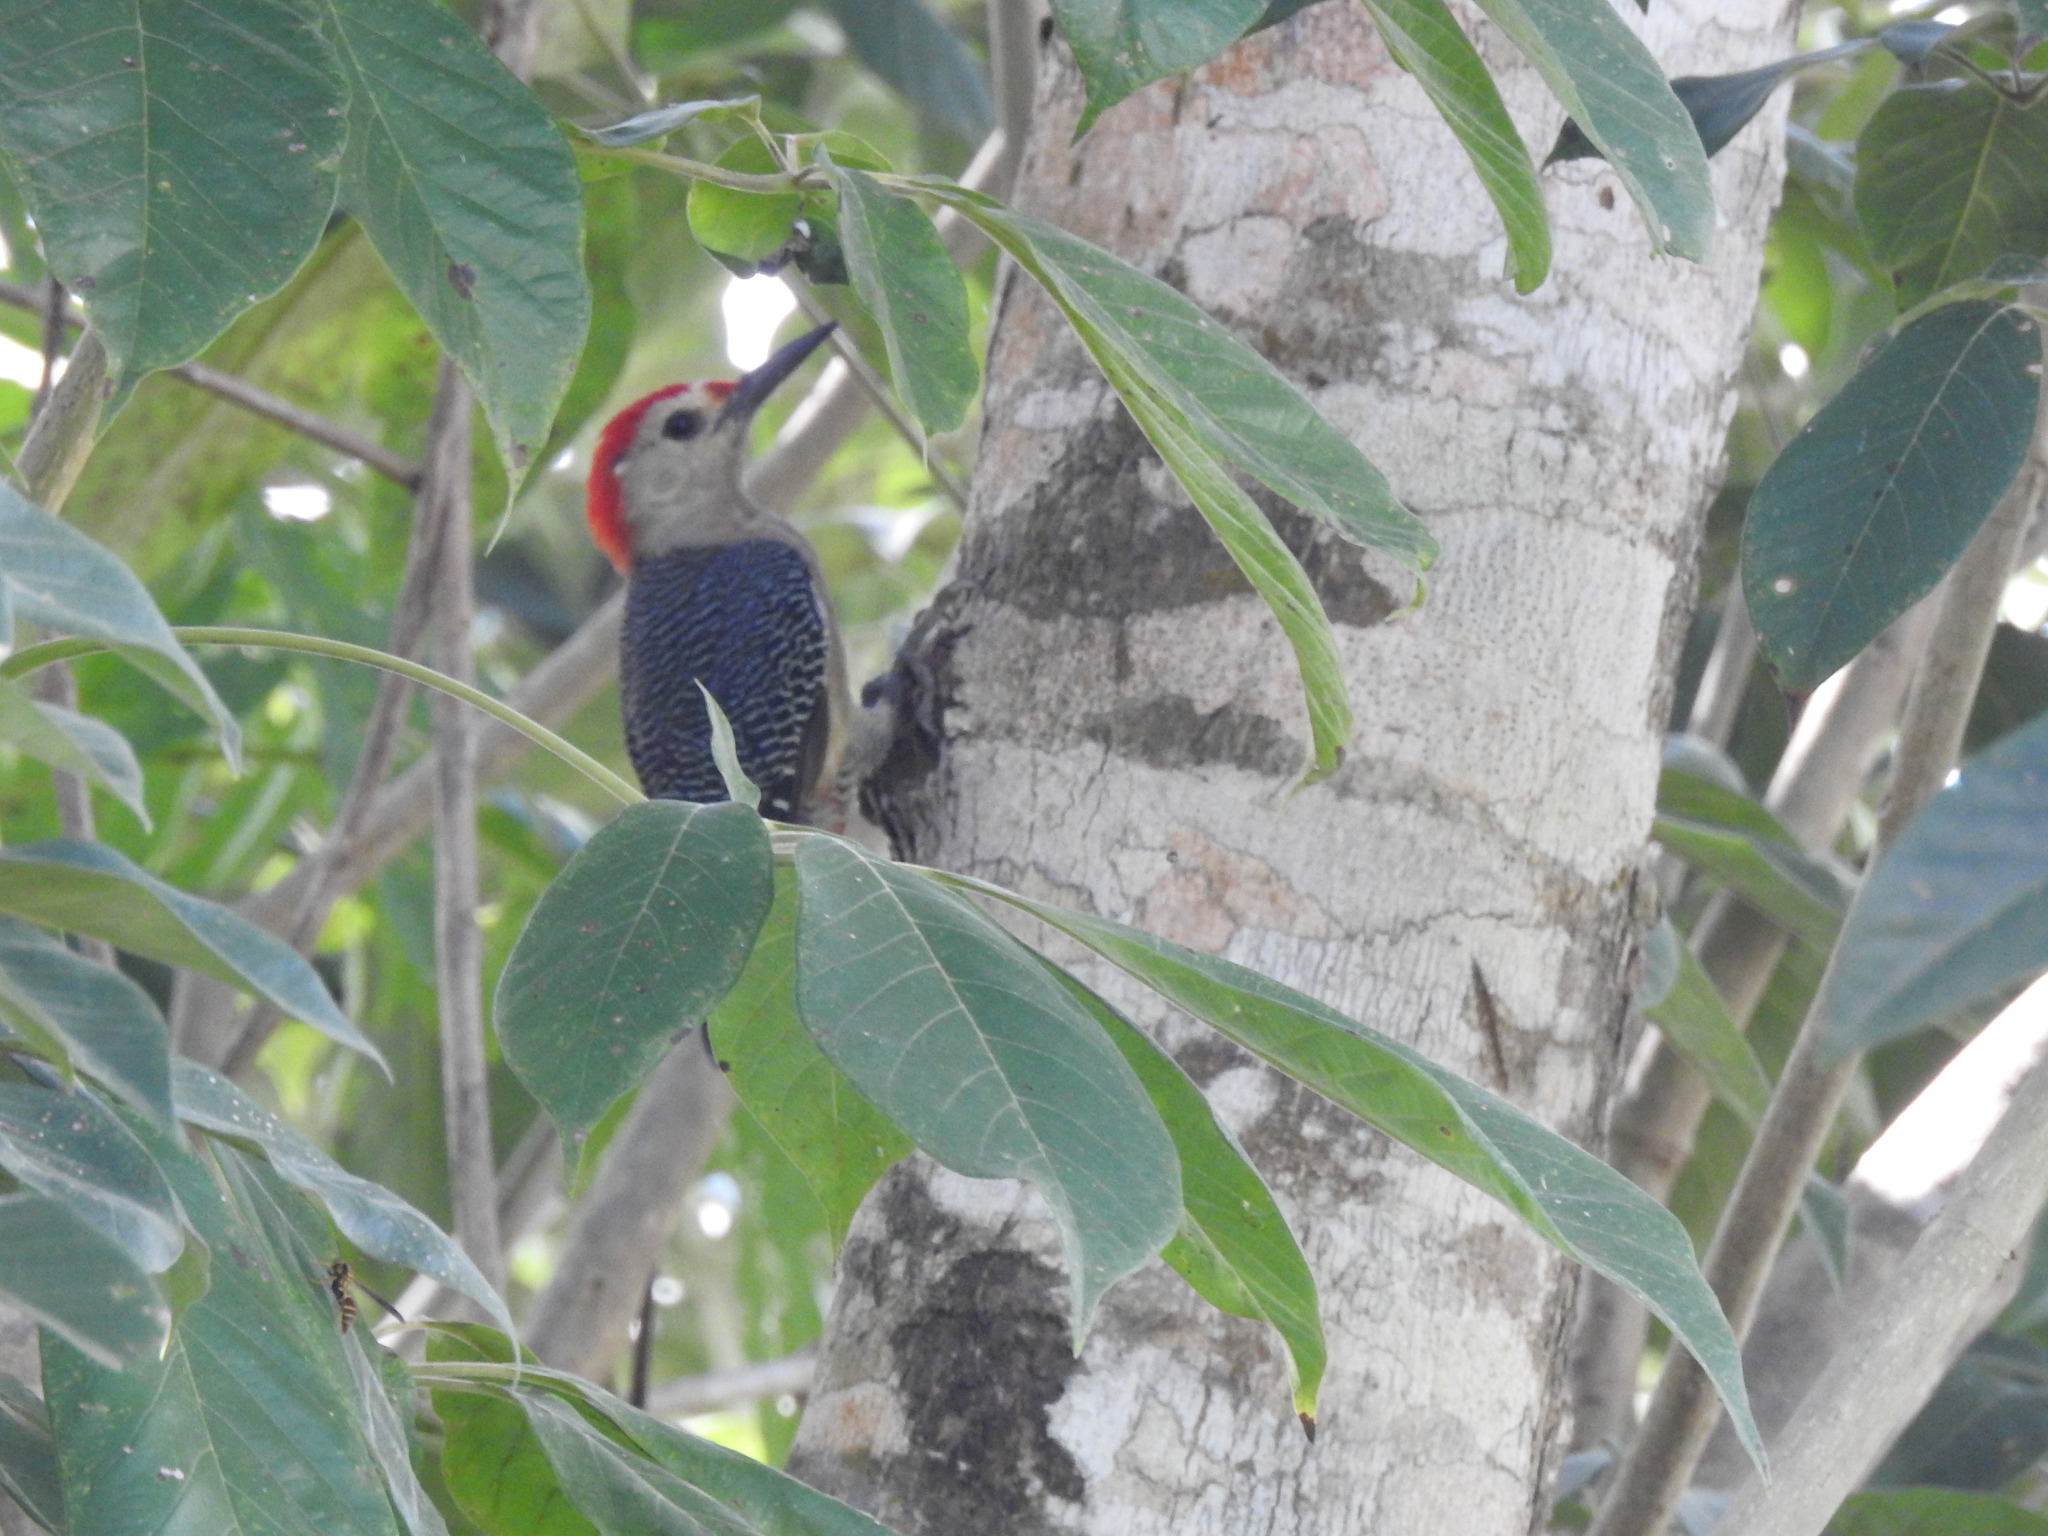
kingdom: Animalia
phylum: Chordata
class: Aves
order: Piciformes
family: Picidae
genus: Melanerpes
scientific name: Melanerpes aurifrons
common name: Golden-fronted woodpecker
